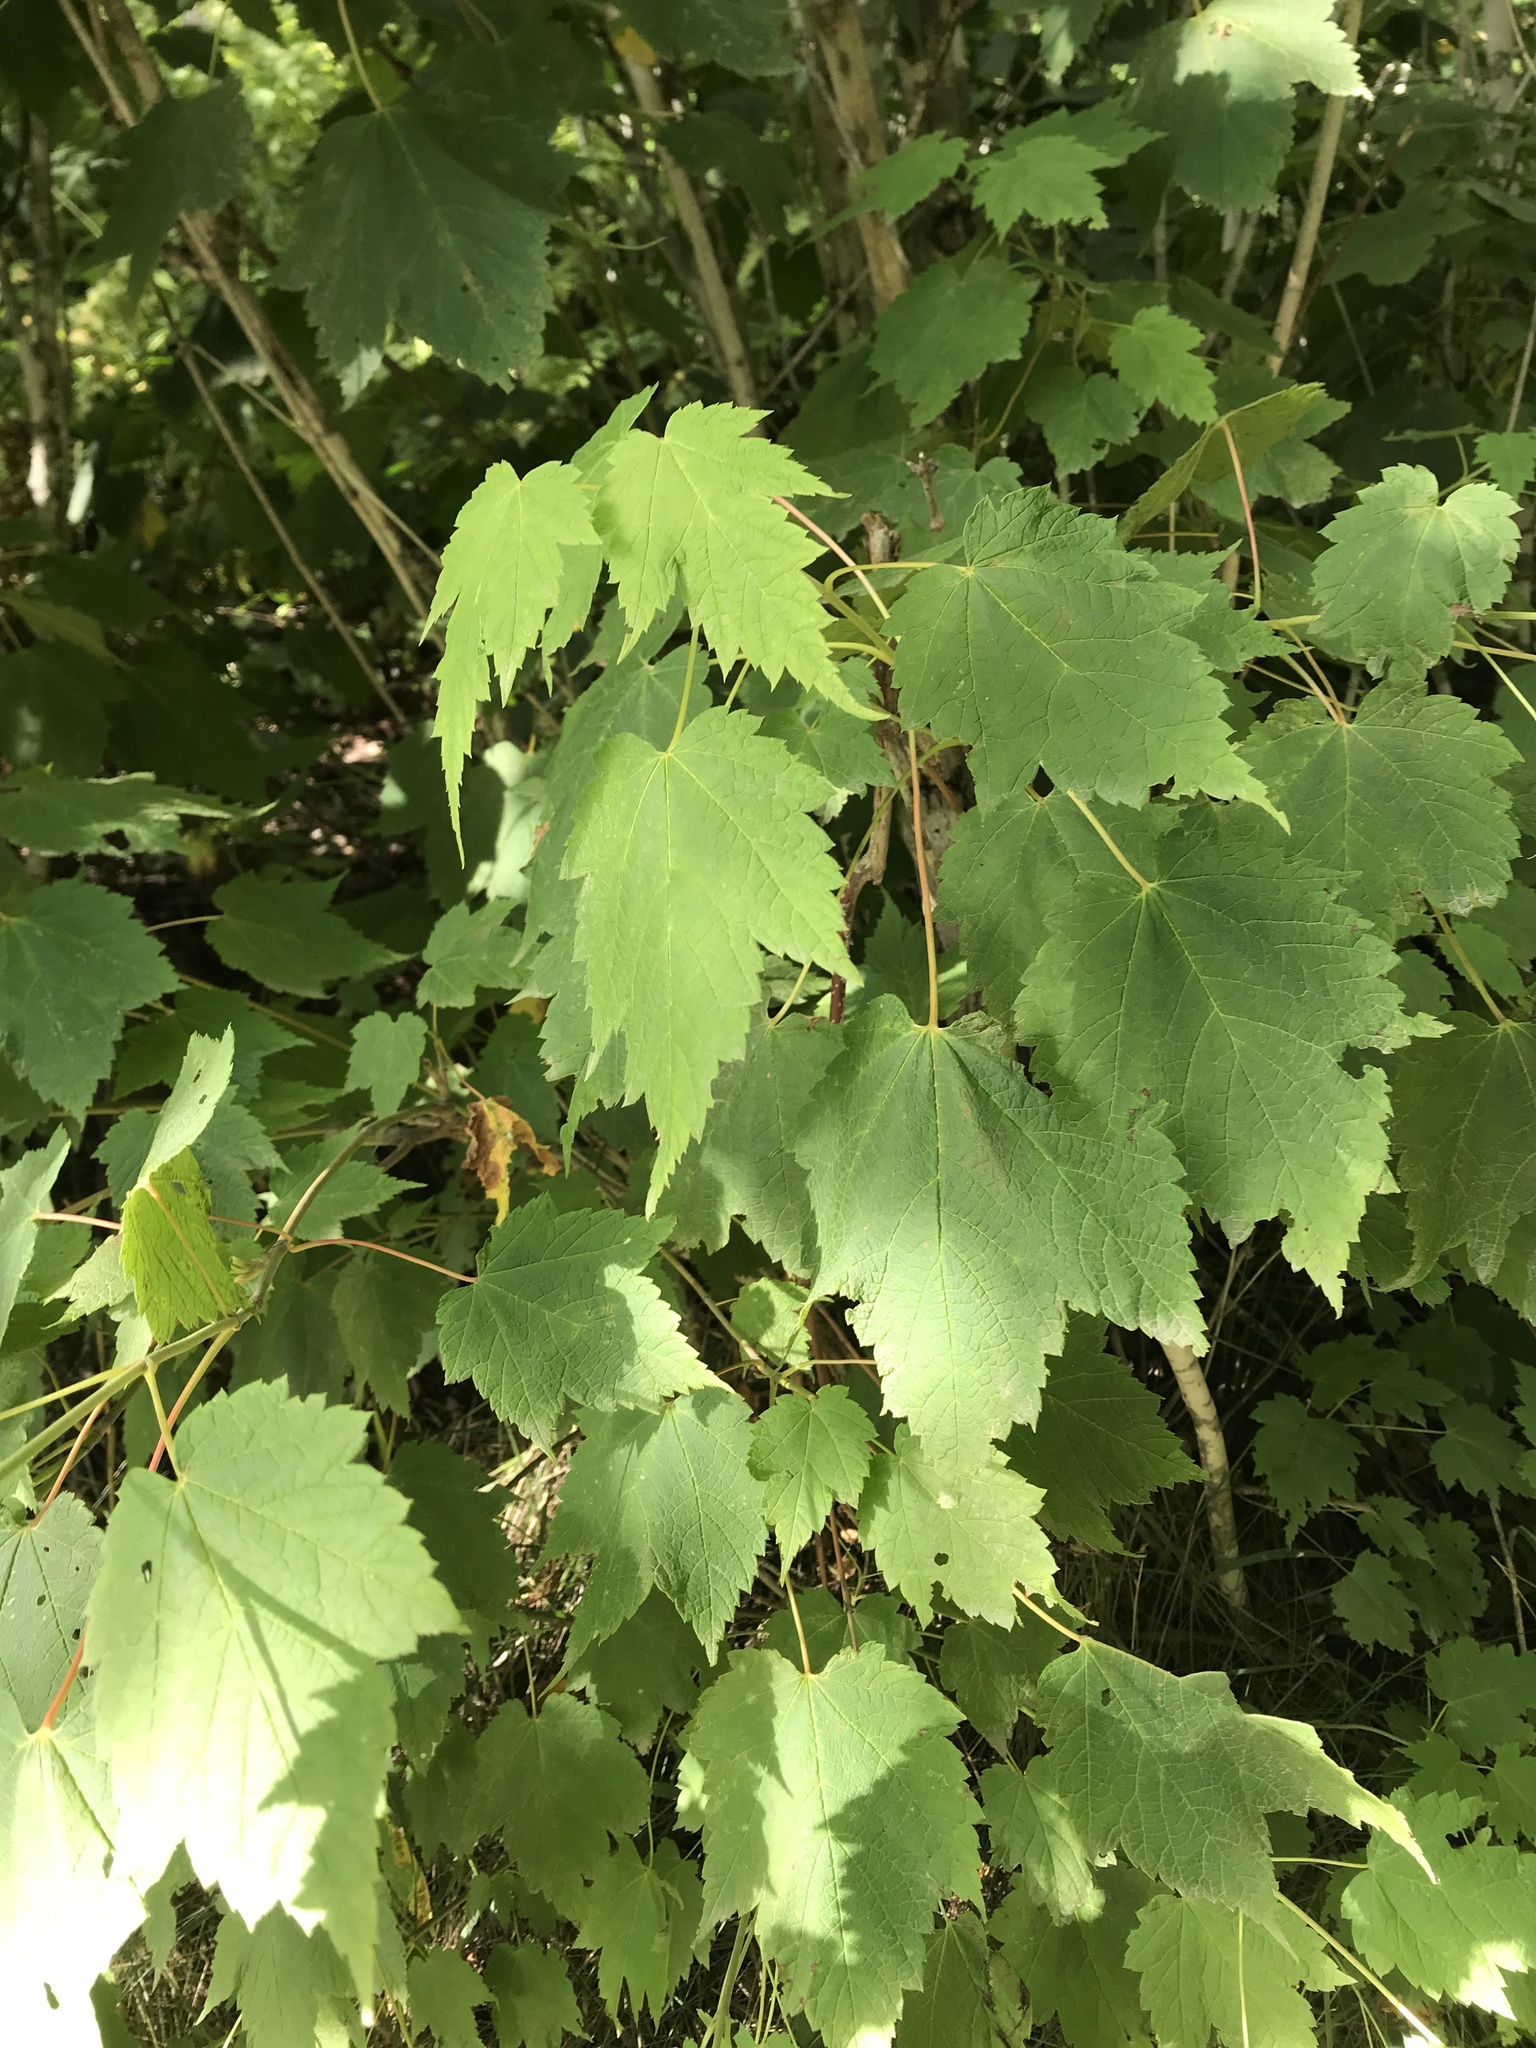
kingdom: Plantae
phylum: Tracheophyta
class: Magnoliopsida
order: Sapindales
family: Sapindaceae
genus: Acer
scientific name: Acer spicatum
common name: Mountain maple
